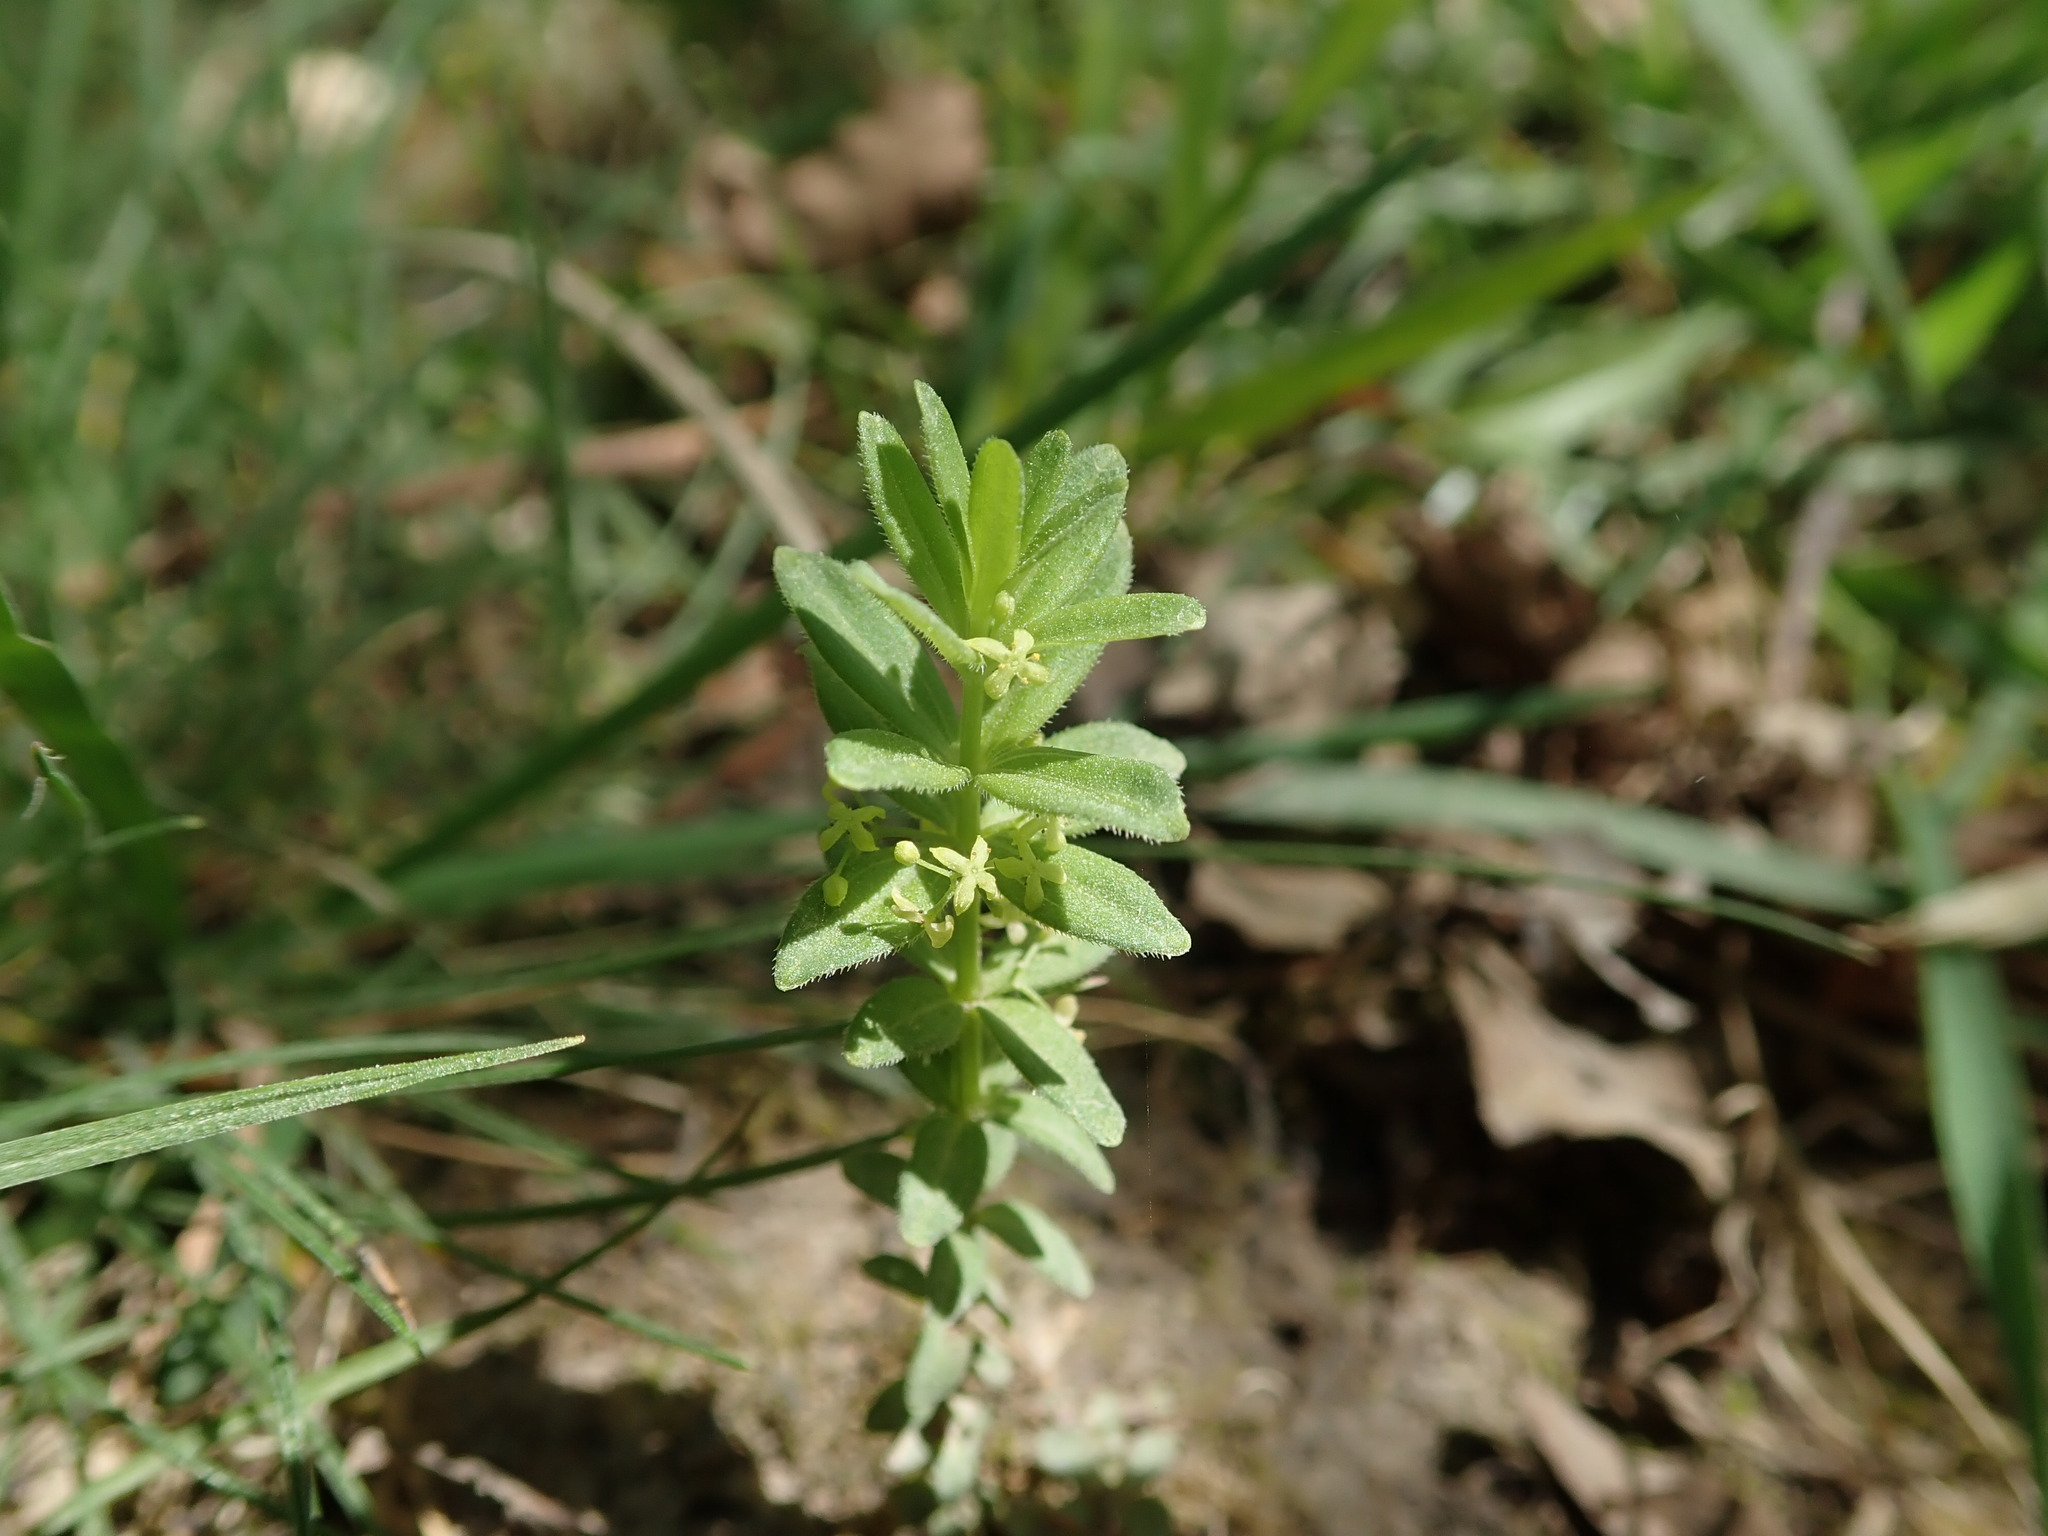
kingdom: Plantae
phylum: Tracheophyta
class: Magnoliopsida
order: Gentianales
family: Rubiaceae
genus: Cruciata
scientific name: Cruciata glabra
